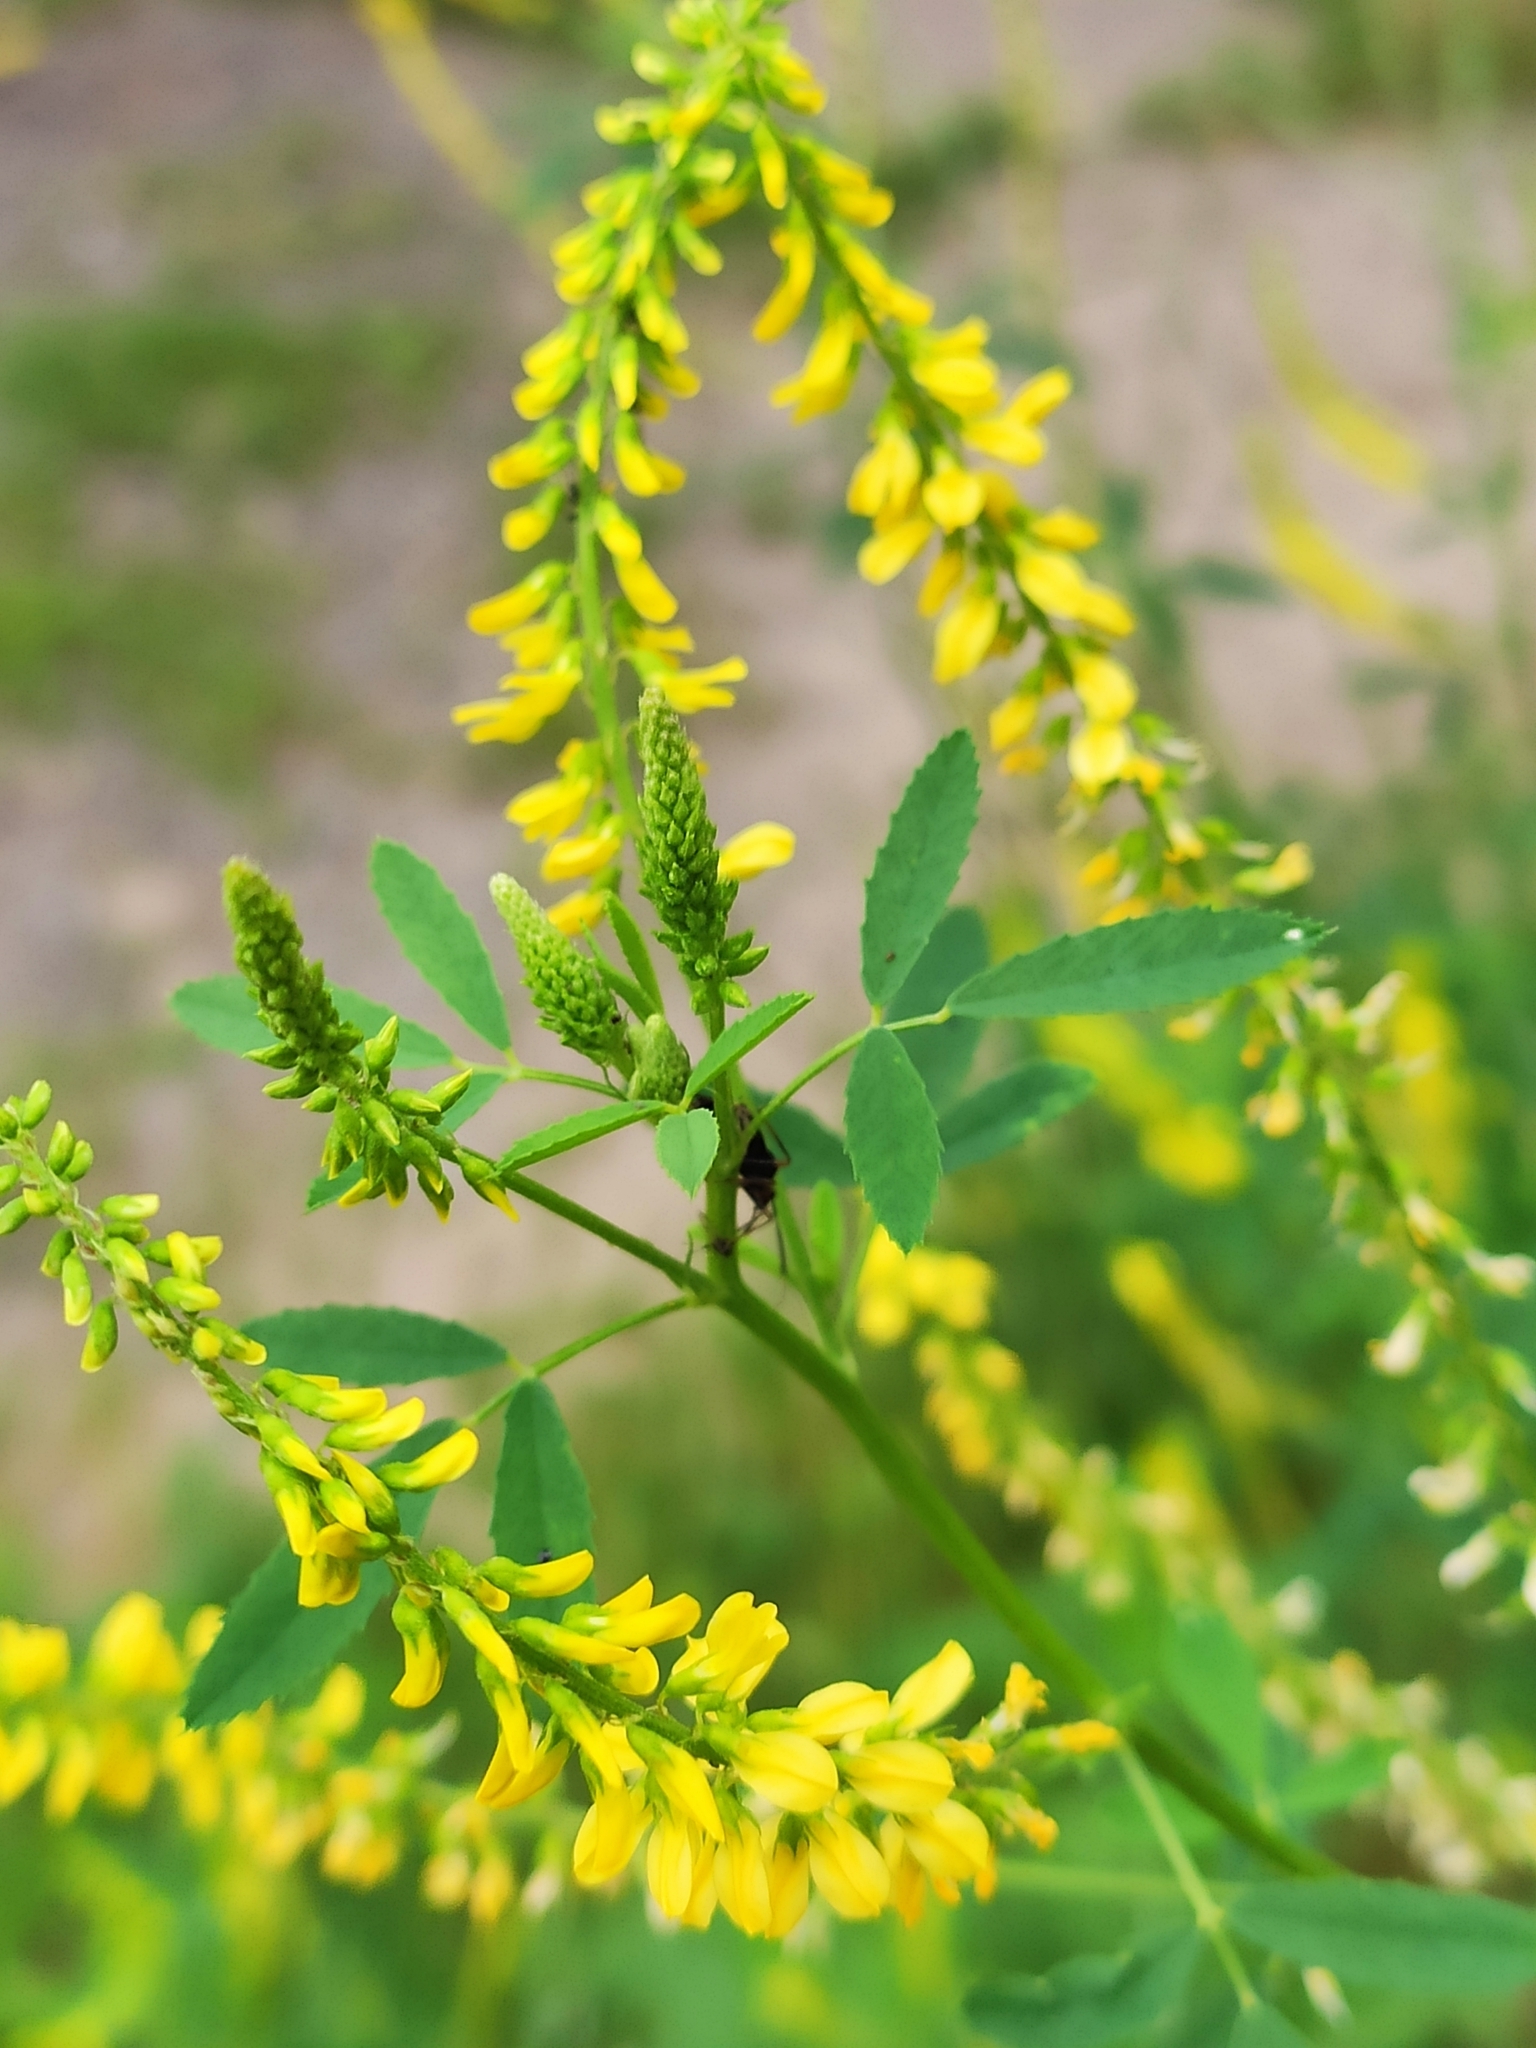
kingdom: Plantae
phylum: Tracheophyta
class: Magnoliopsida
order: Fabales
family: Fabaceae
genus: Melilotus
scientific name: Melilotus officinalis
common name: Sweetclover
